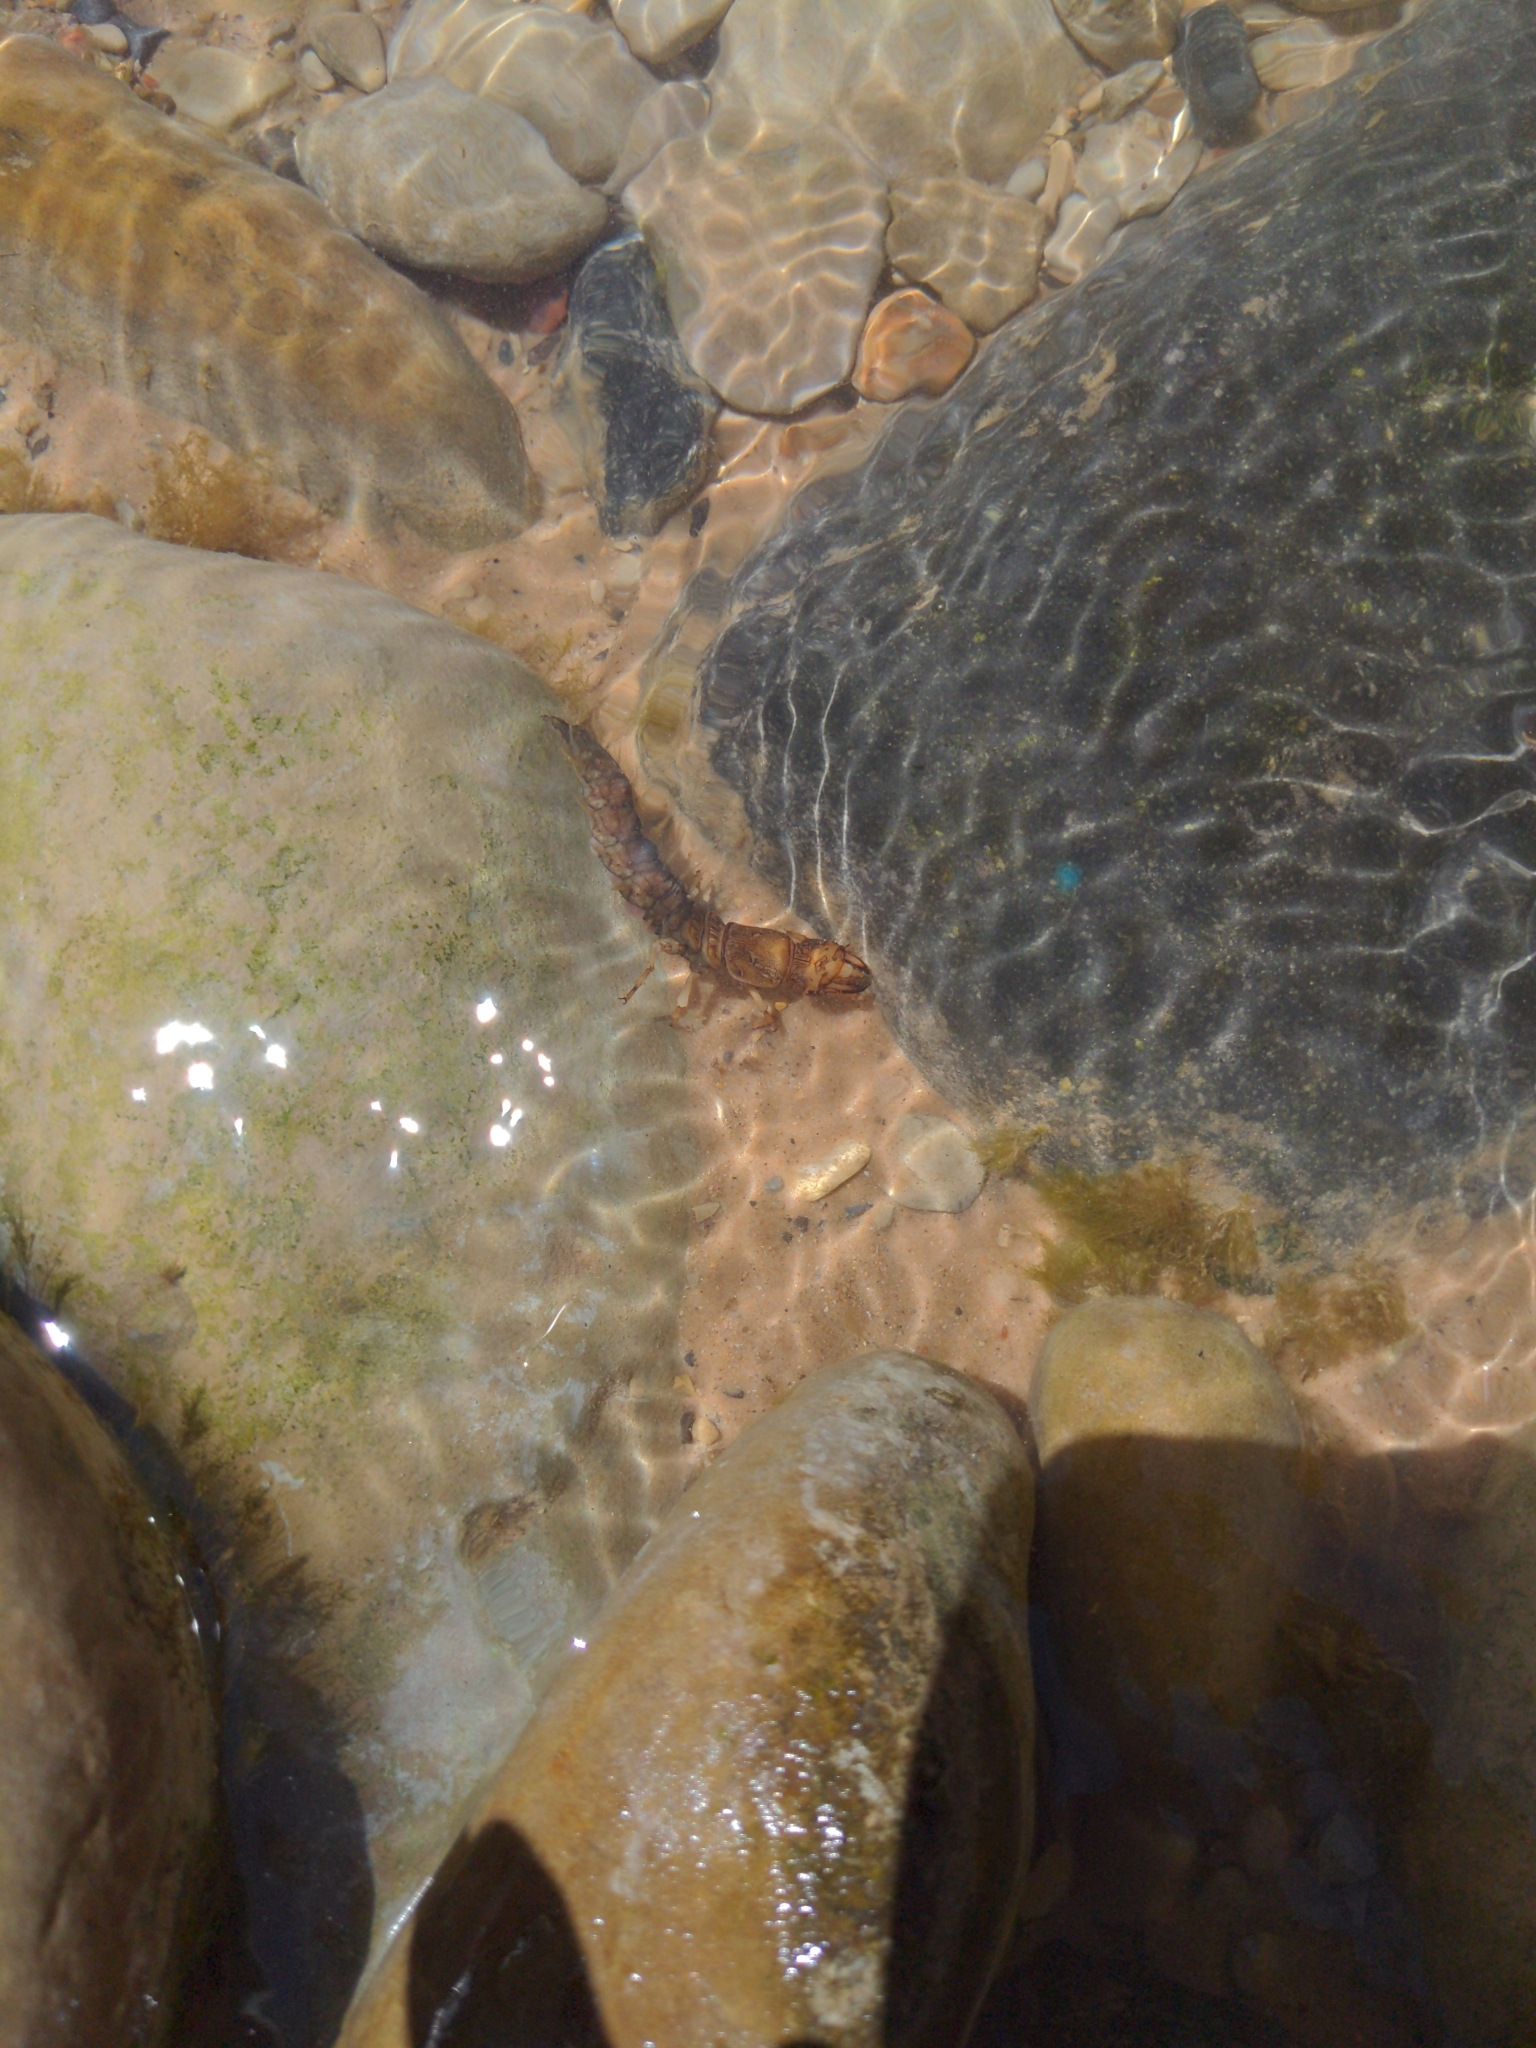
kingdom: Animalia
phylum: Arthropoda
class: Insecta
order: Megaloptera
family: Corydalidae
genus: Corydalus
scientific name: Corydalus texanus
